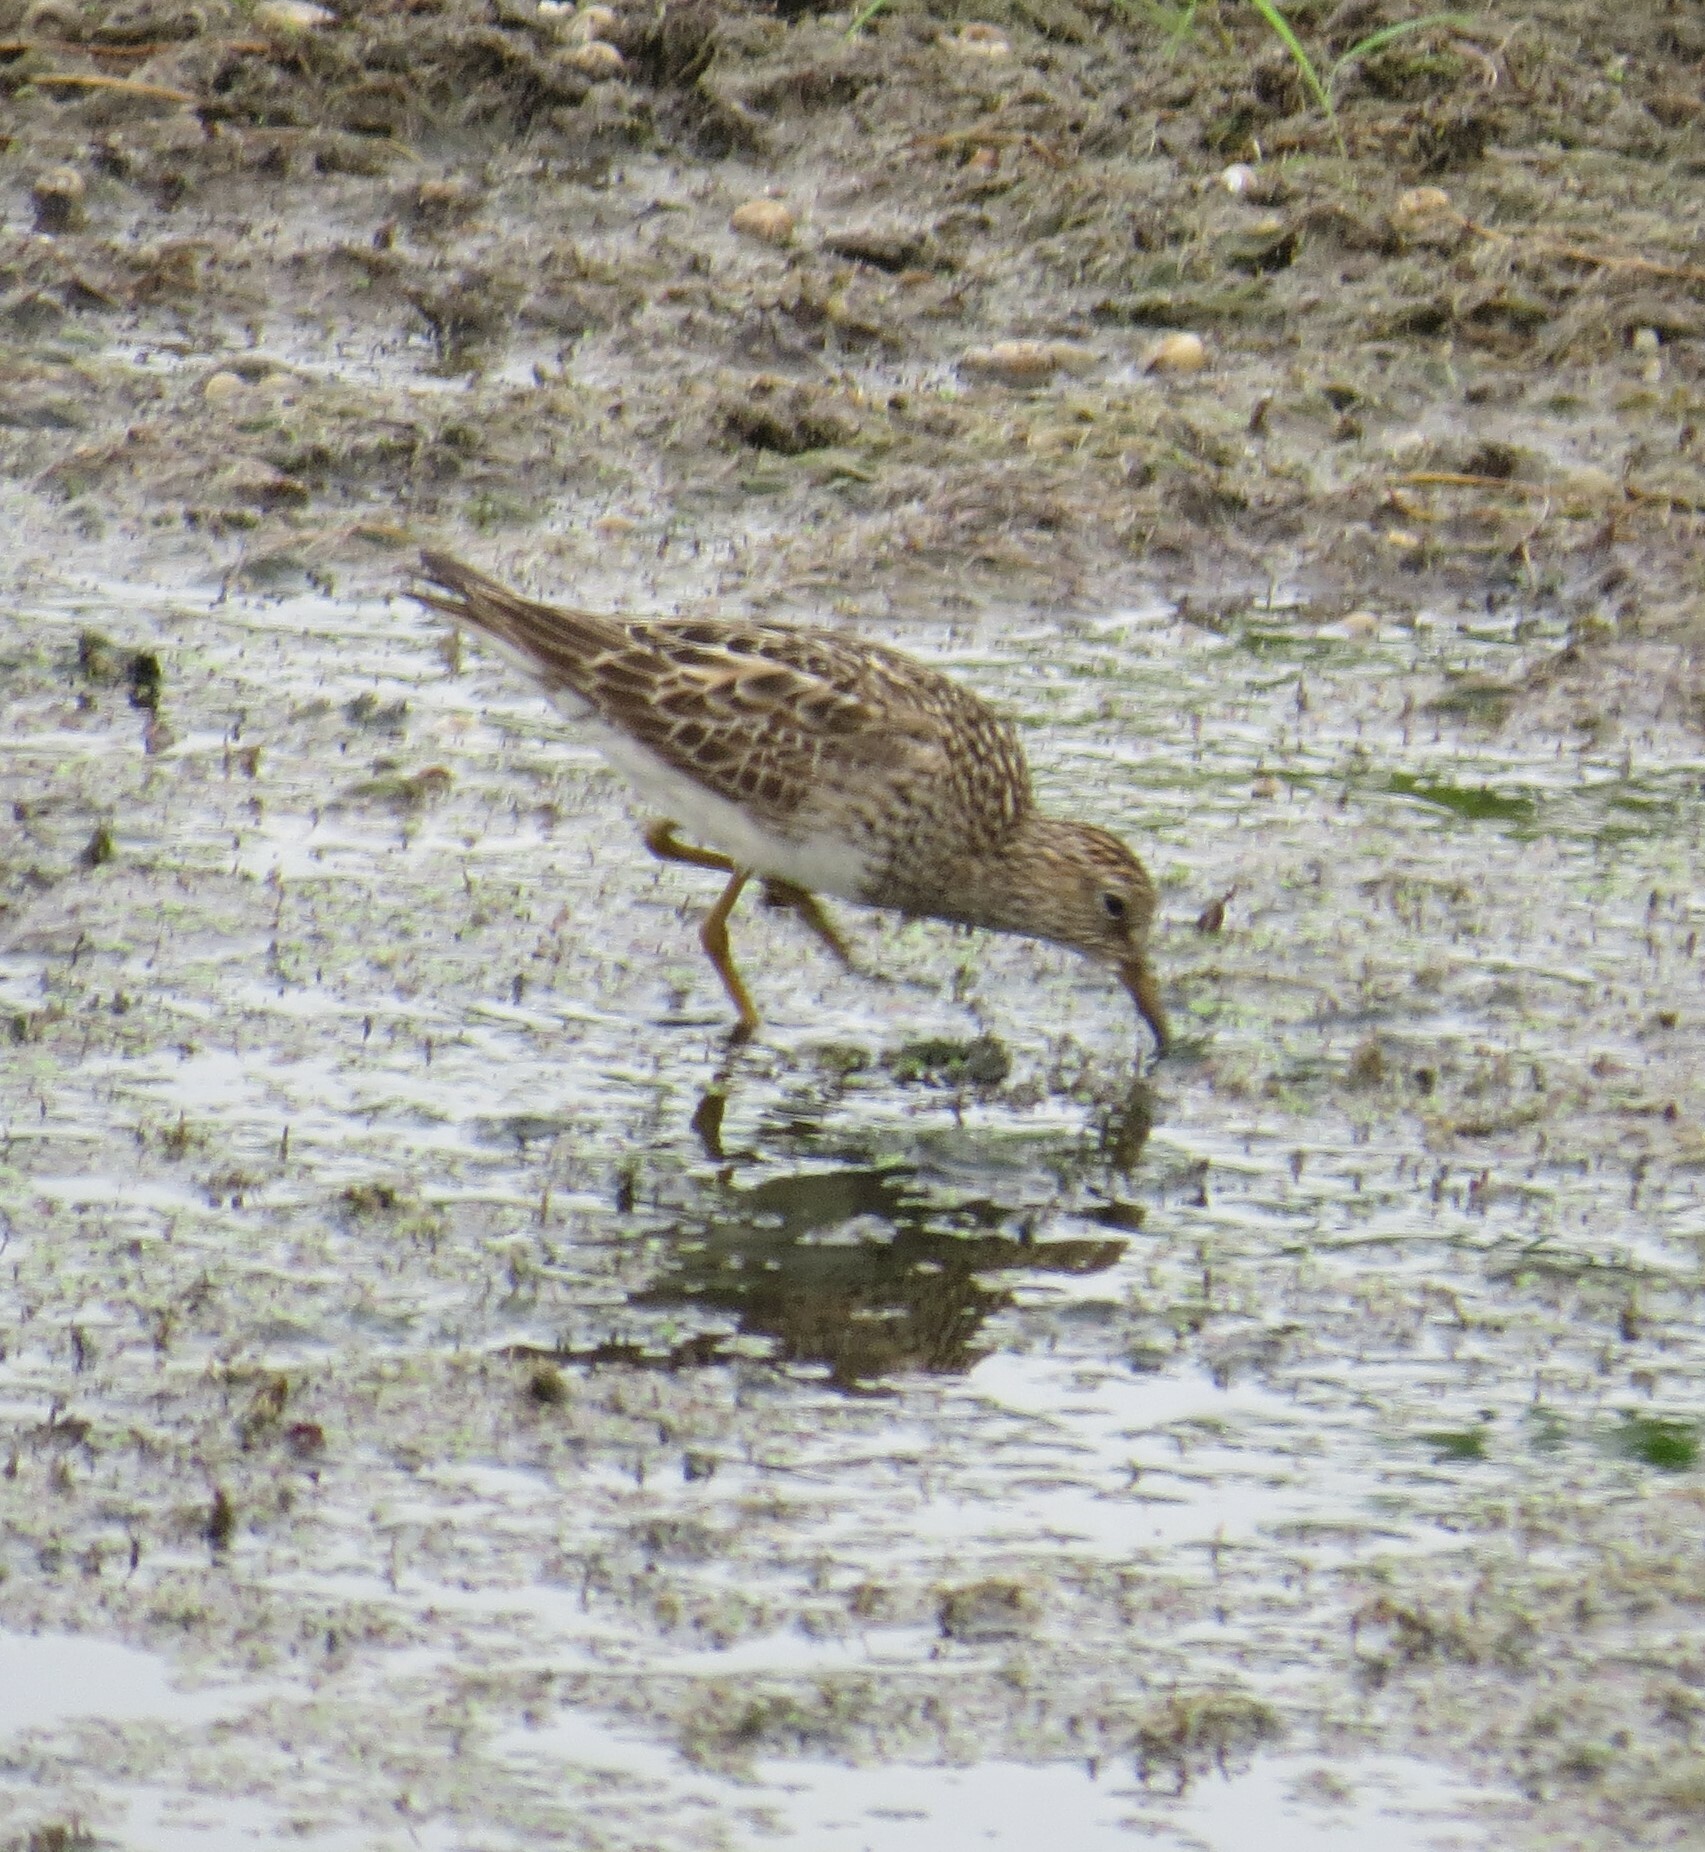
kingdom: Animalia
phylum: Chordata
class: Aves
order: Charadriiformes
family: Scolopacidae
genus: Calidris
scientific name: Calidris melanotos
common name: Pectoral sandpiper
